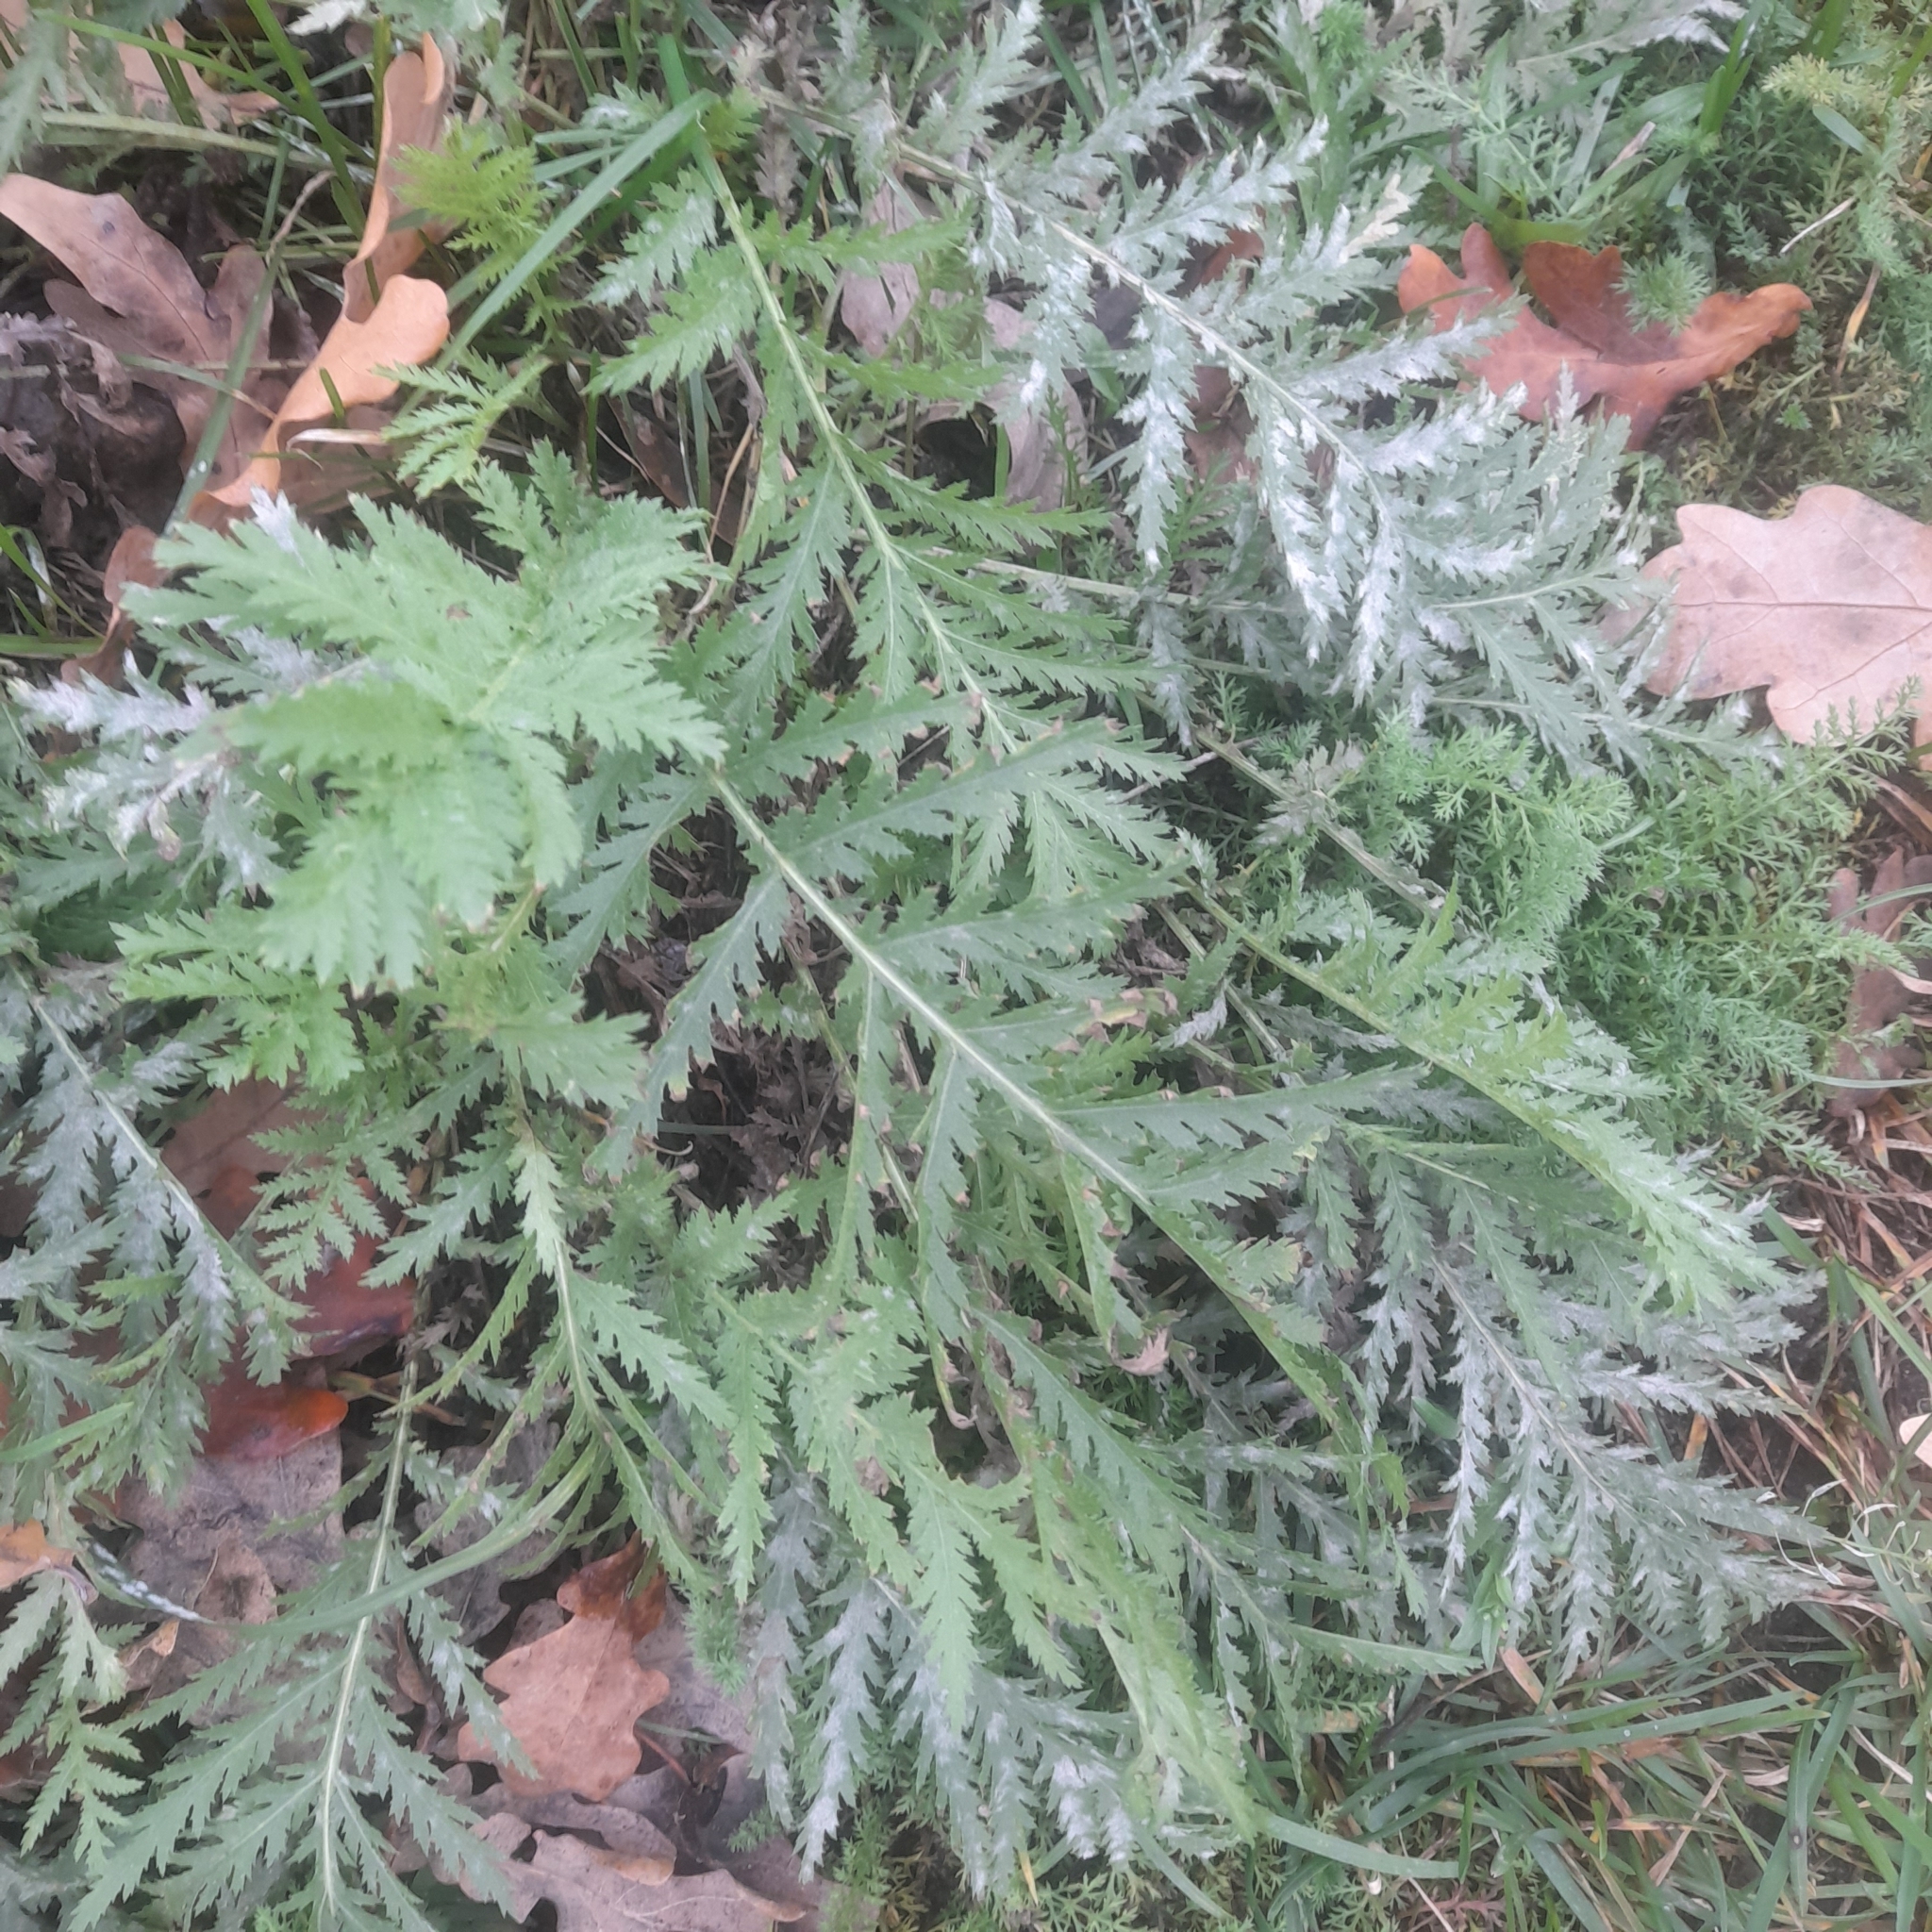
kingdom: Plantae
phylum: Tracheophyta
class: Magnoliopsida
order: Asterales
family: Asteraceae
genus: Tanacetum
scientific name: Tanacetum vulgare
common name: Common tansy
